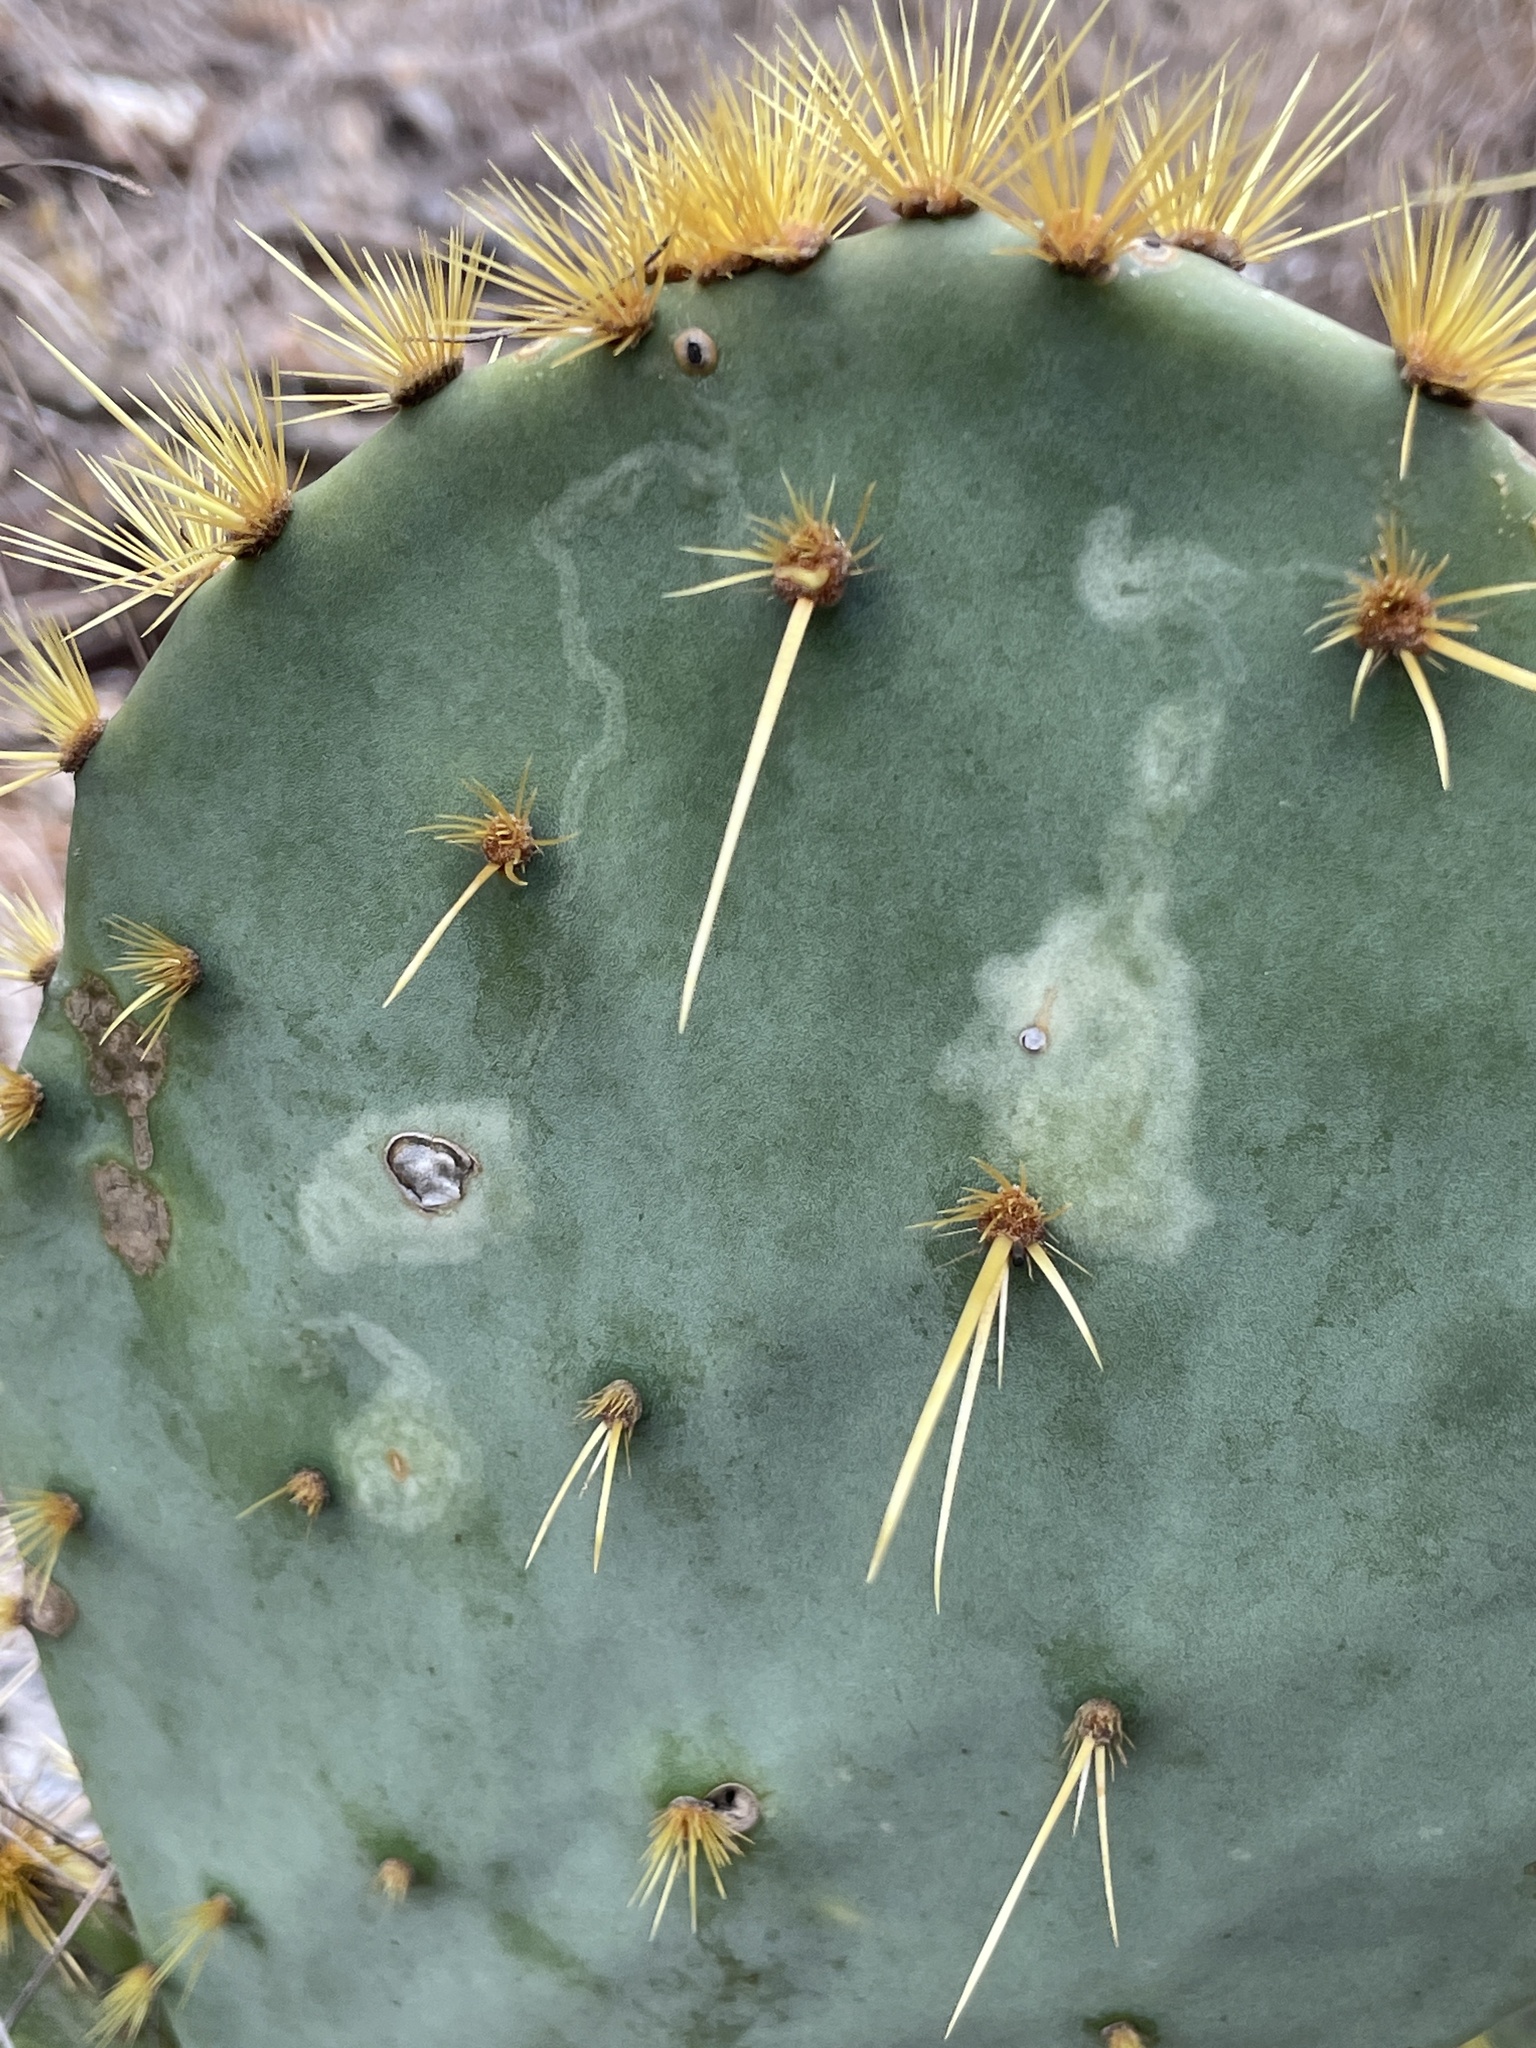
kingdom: Animalia
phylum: Arthropoda
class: Insecta
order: Lepidoptera
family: Gracillariidae
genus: Marmara
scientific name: Marmara opuntiella
